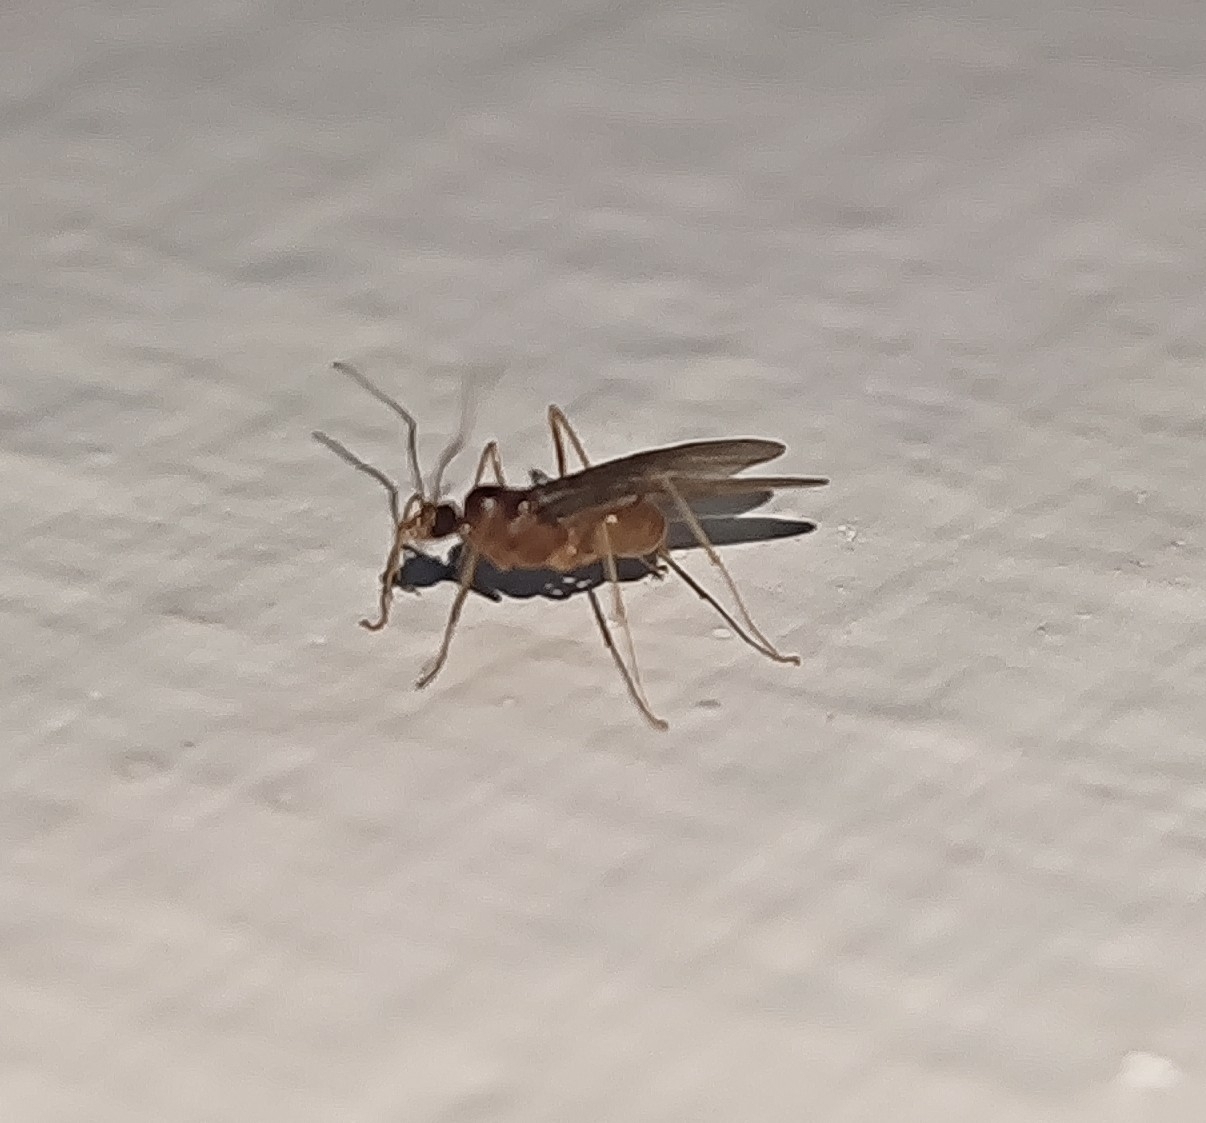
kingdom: Animalia
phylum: Arthropoda
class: Insecta
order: Hymenoptera
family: Formicidae
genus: Anoplolepis
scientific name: Anoplolepis gracilipes
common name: Ant
